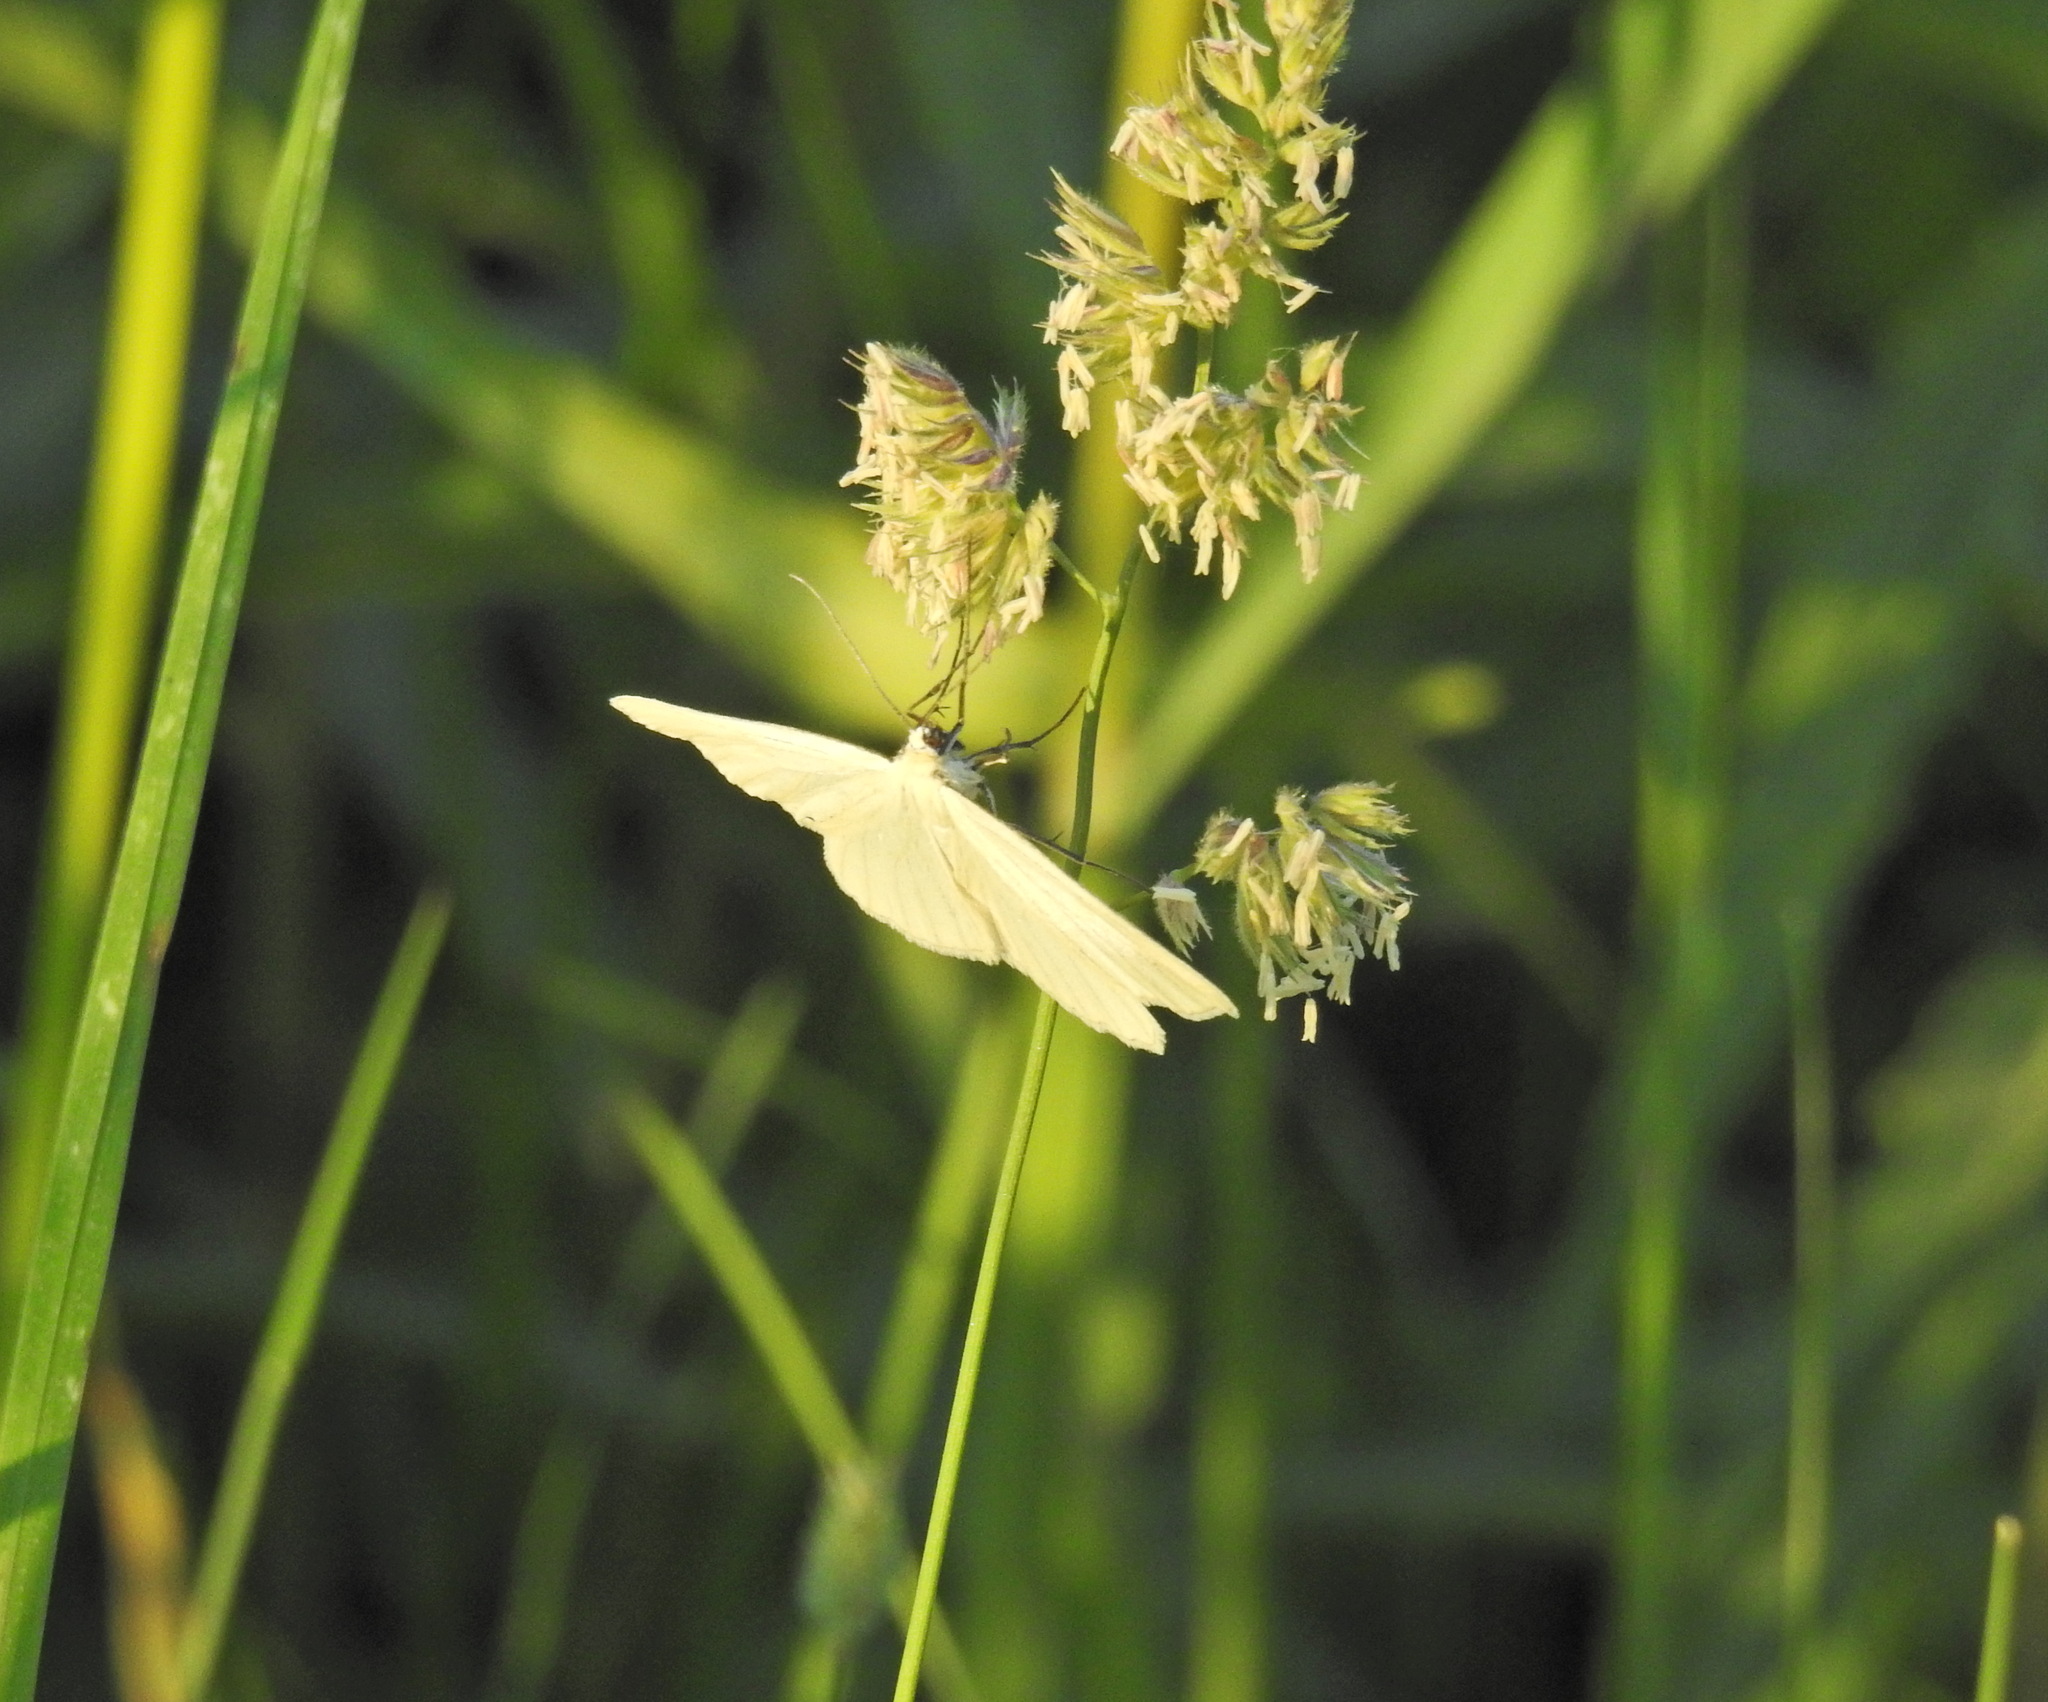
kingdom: Animalia
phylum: Arthropoda
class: Insecta
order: Lepidoptera
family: Geometridae
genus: Siona
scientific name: Siona lineata
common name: Black-veined moth
